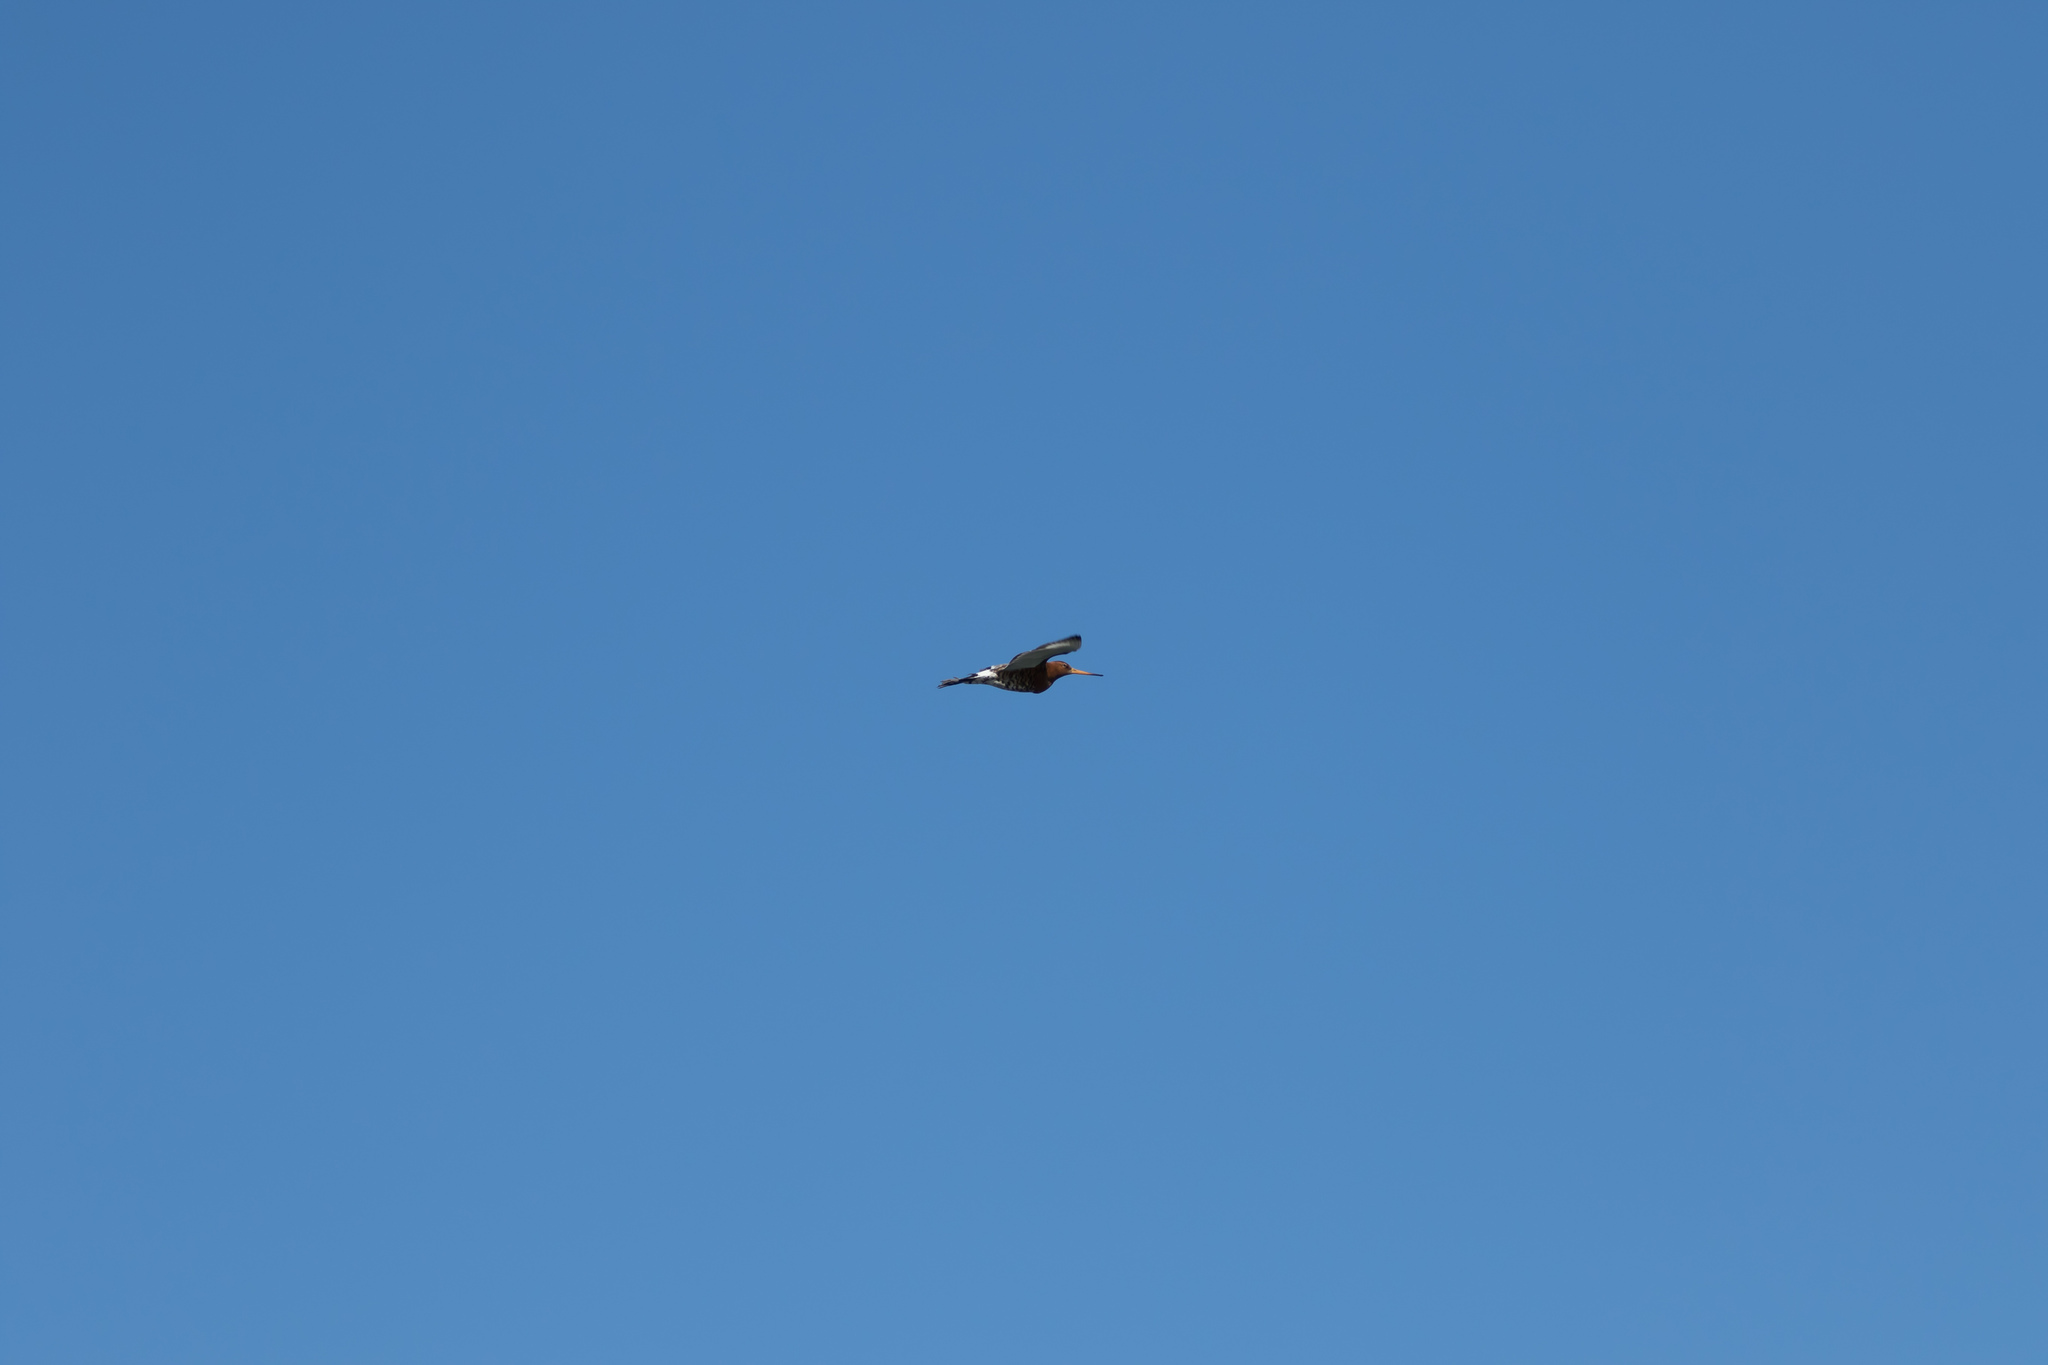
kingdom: Animalia
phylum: Chordata
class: Aves
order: Charadriiformes
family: Scolopacidae
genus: Limosa
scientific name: Limosa limosa
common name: Black-tailed godwit
